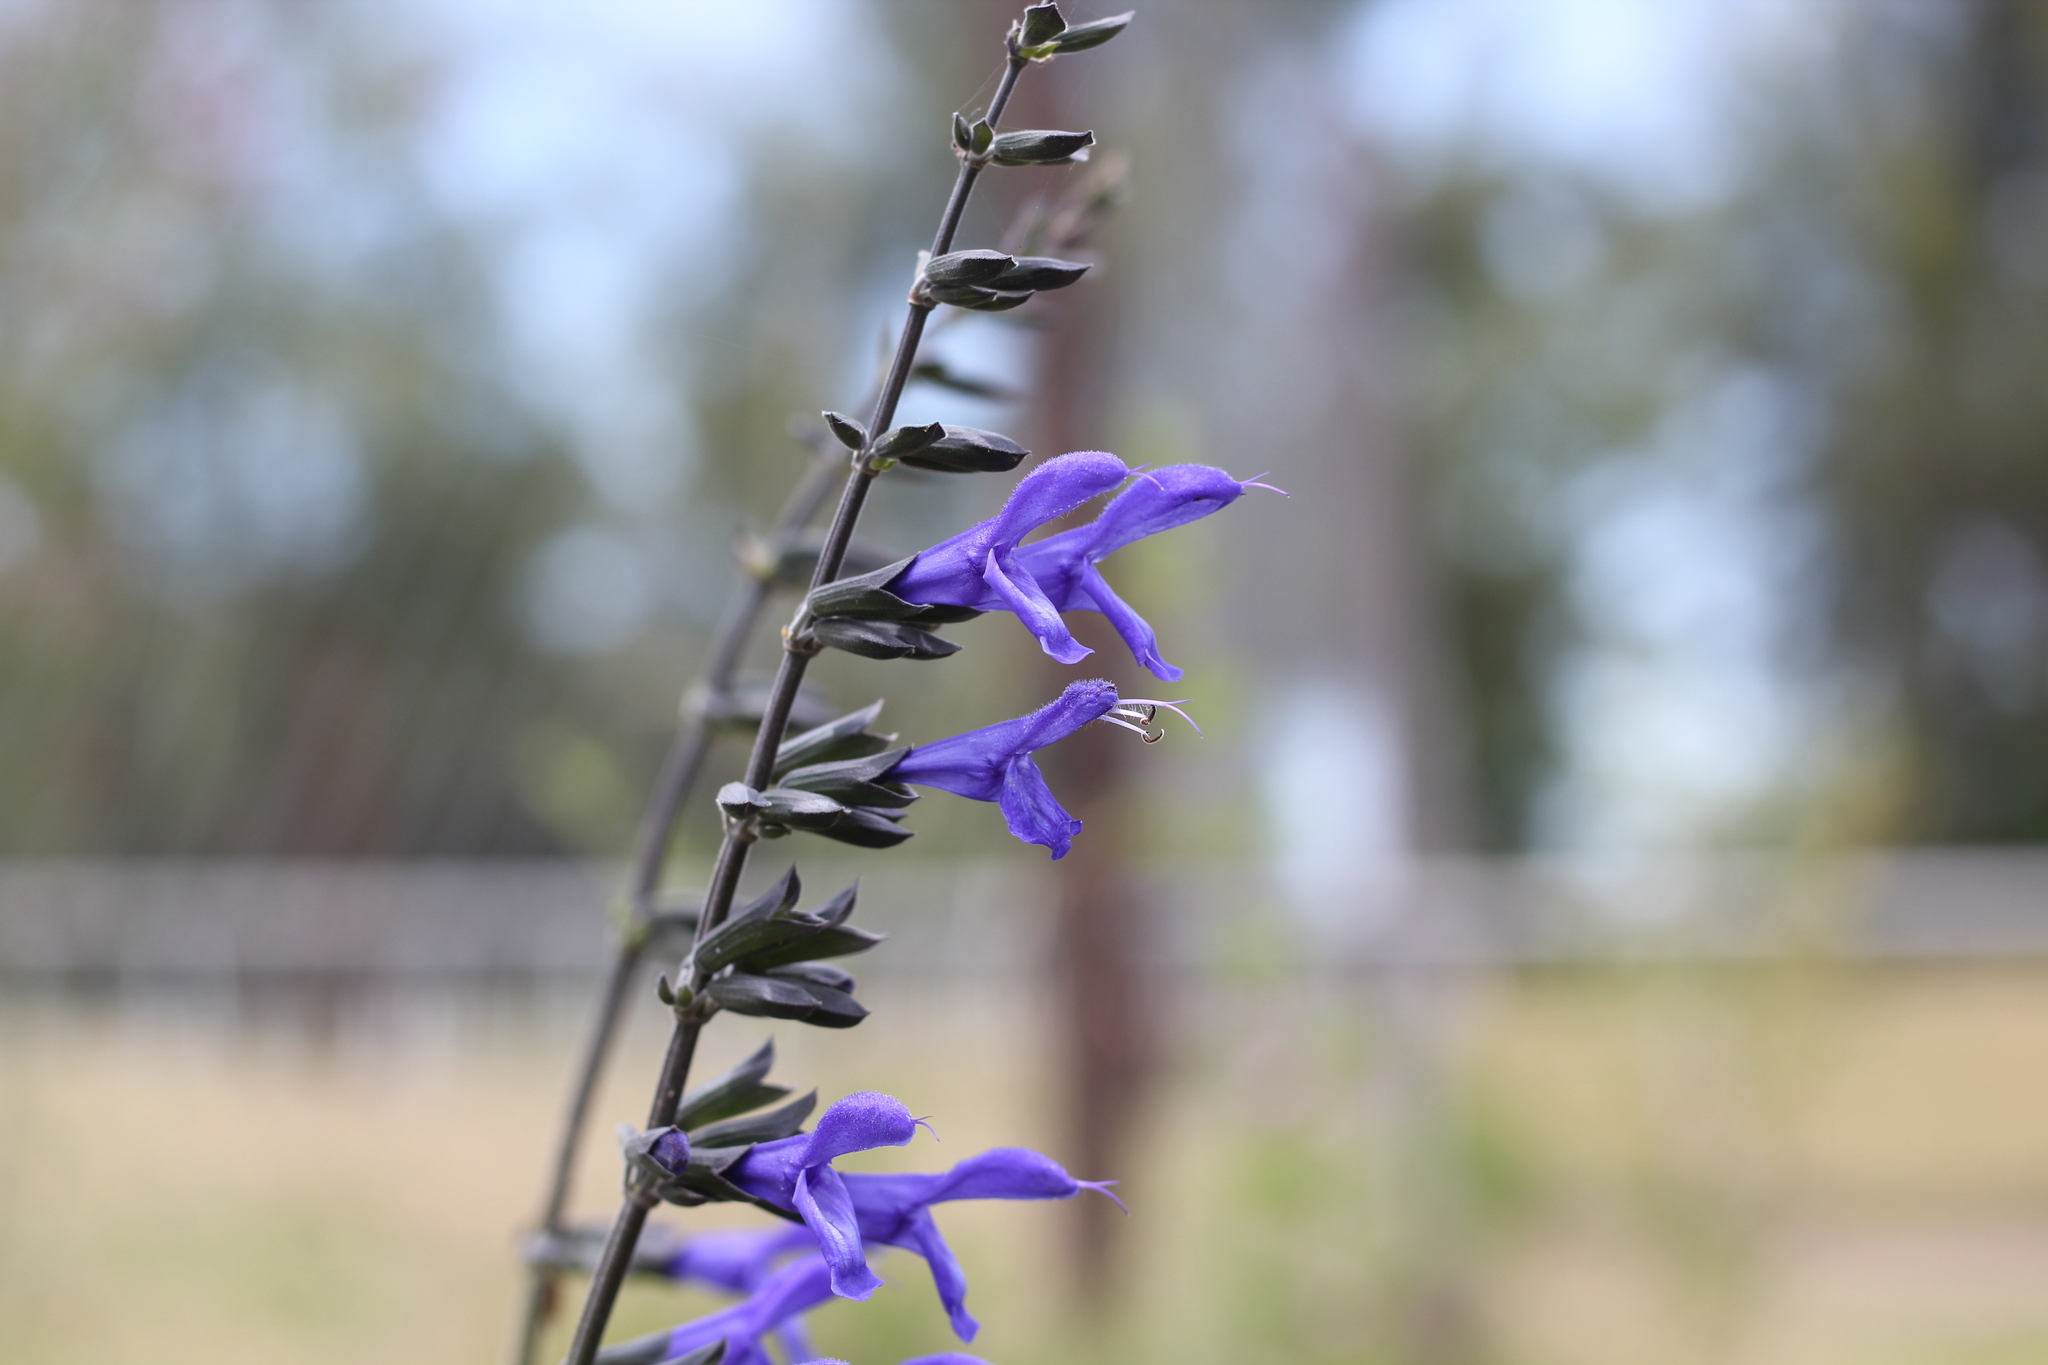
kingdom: Plantae
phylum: Tracheophyta
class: Magnoliopsida
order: Lamiales
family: Lamiaceae
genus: Salvia
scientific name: Salvia guaranitica
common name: Anise-scented sage
